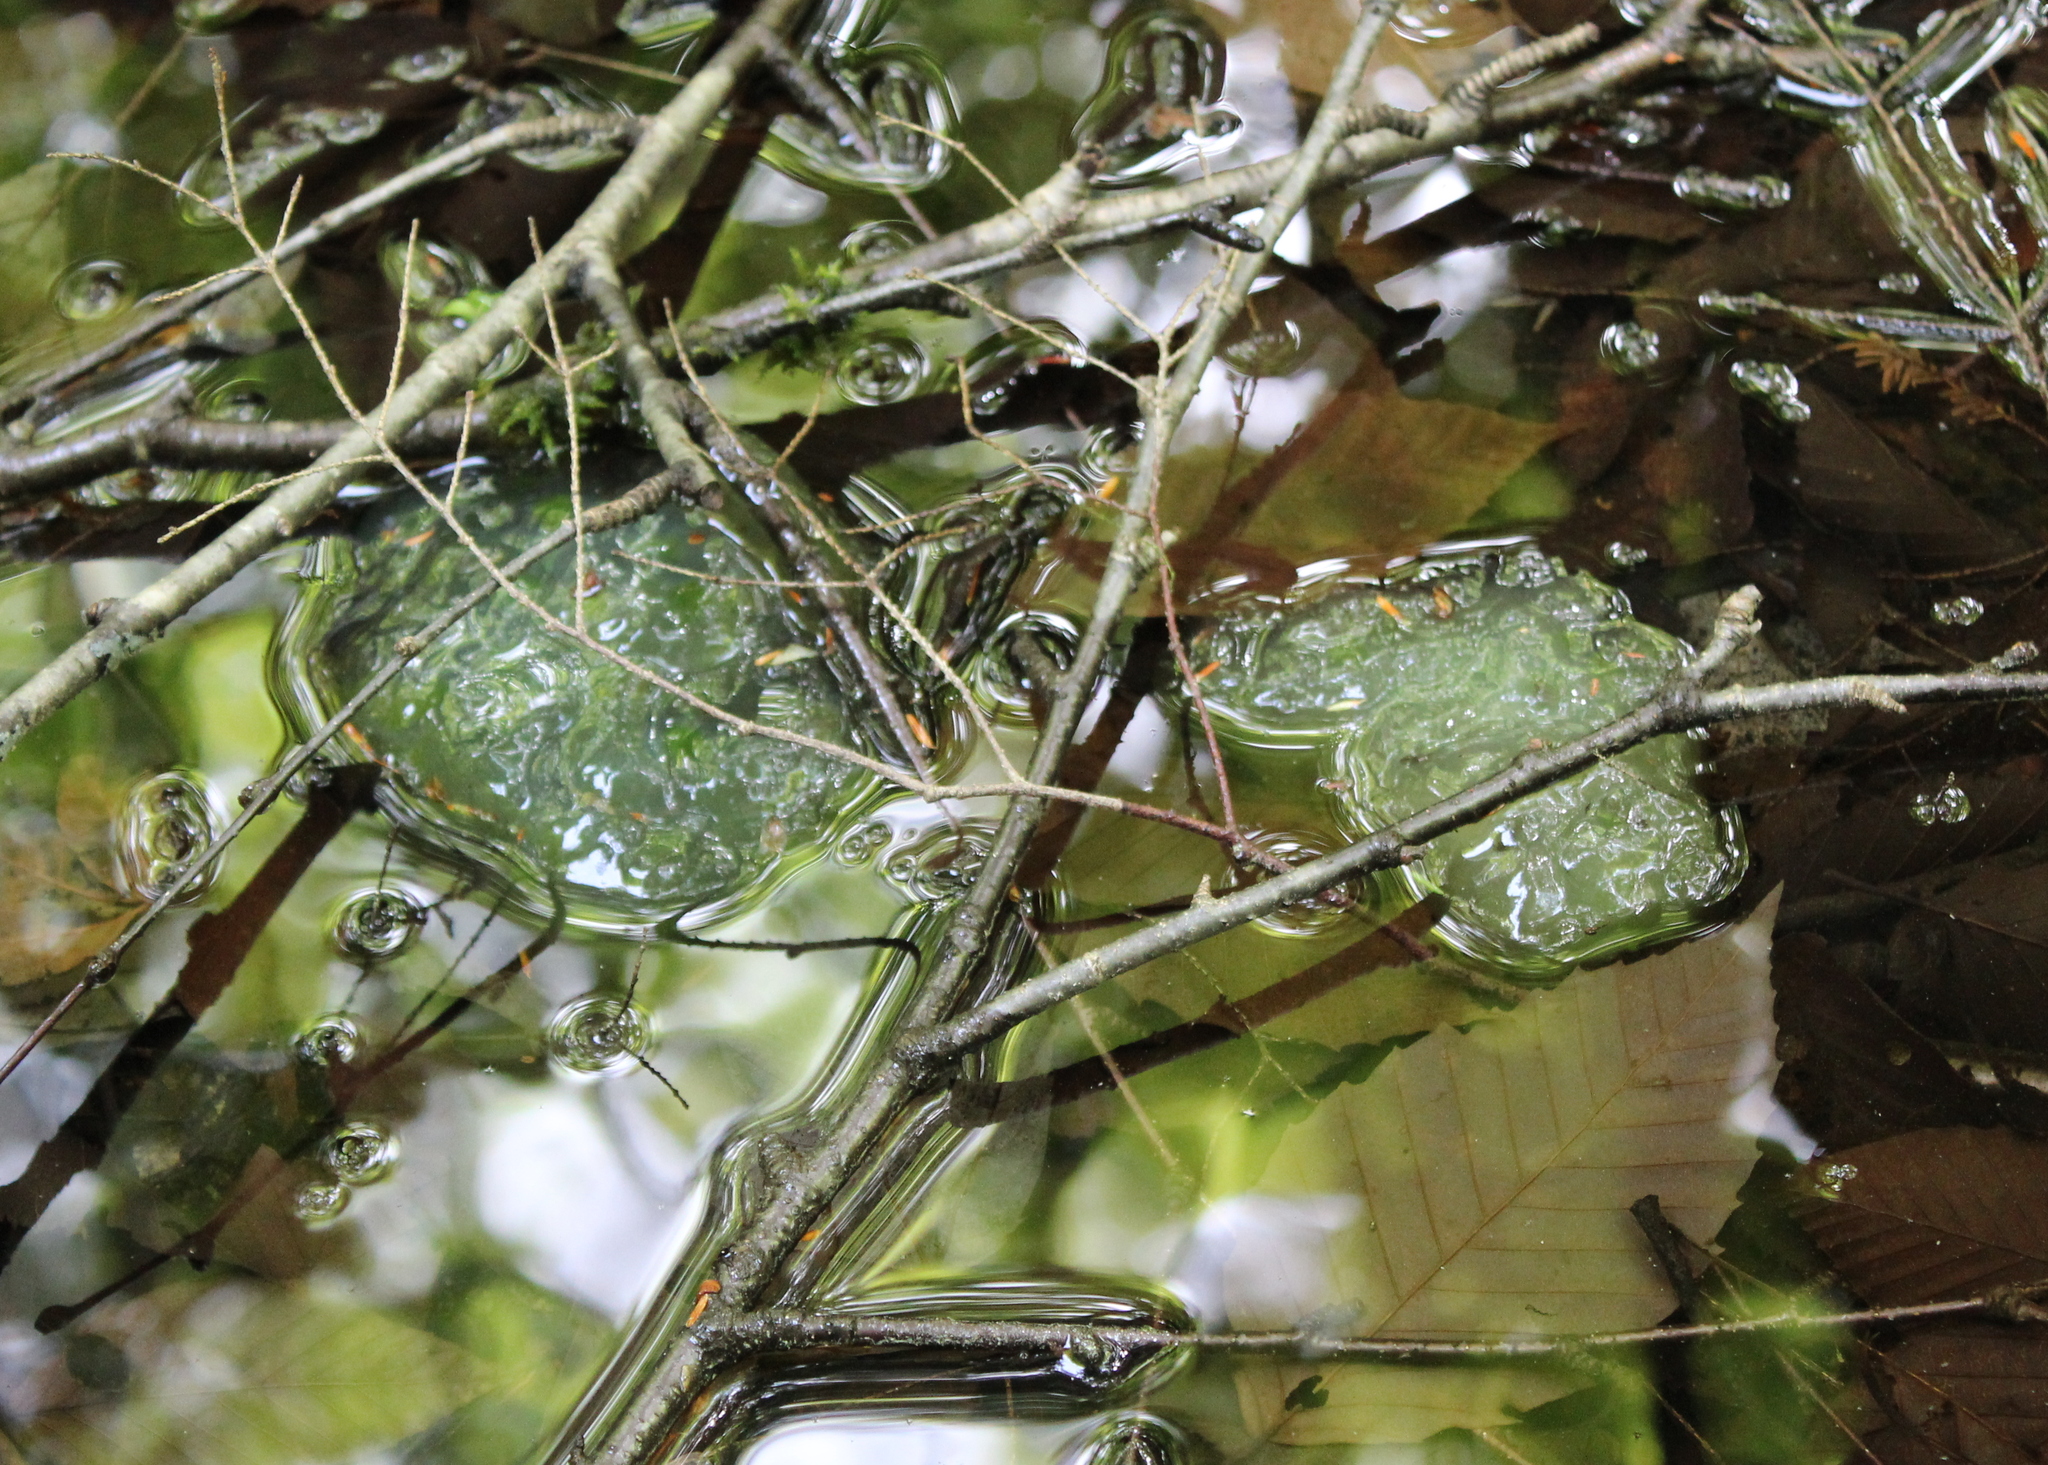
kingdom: Animalia
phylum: Chordata
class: Amphibia
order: Caudata
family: Ambystomatidae
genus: Ambystoma
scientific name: Ambystoma maculatum
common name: Spotted salamander
